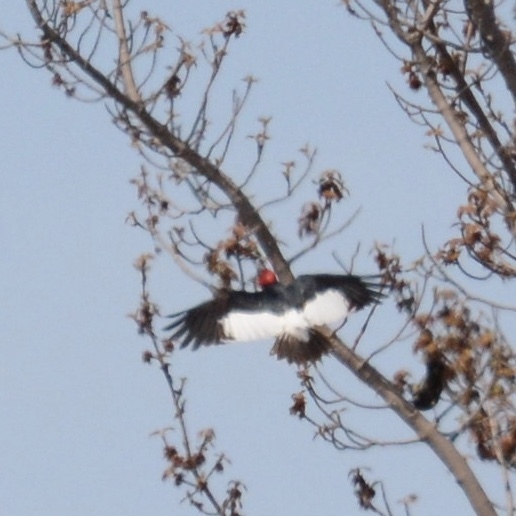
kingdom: Animalia
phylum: Chordata
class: Aves
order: Piciformes
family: Picidae
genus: Melanerpes
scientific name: Melanerpes erythrocephalus
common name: Red-headed woodpecker
